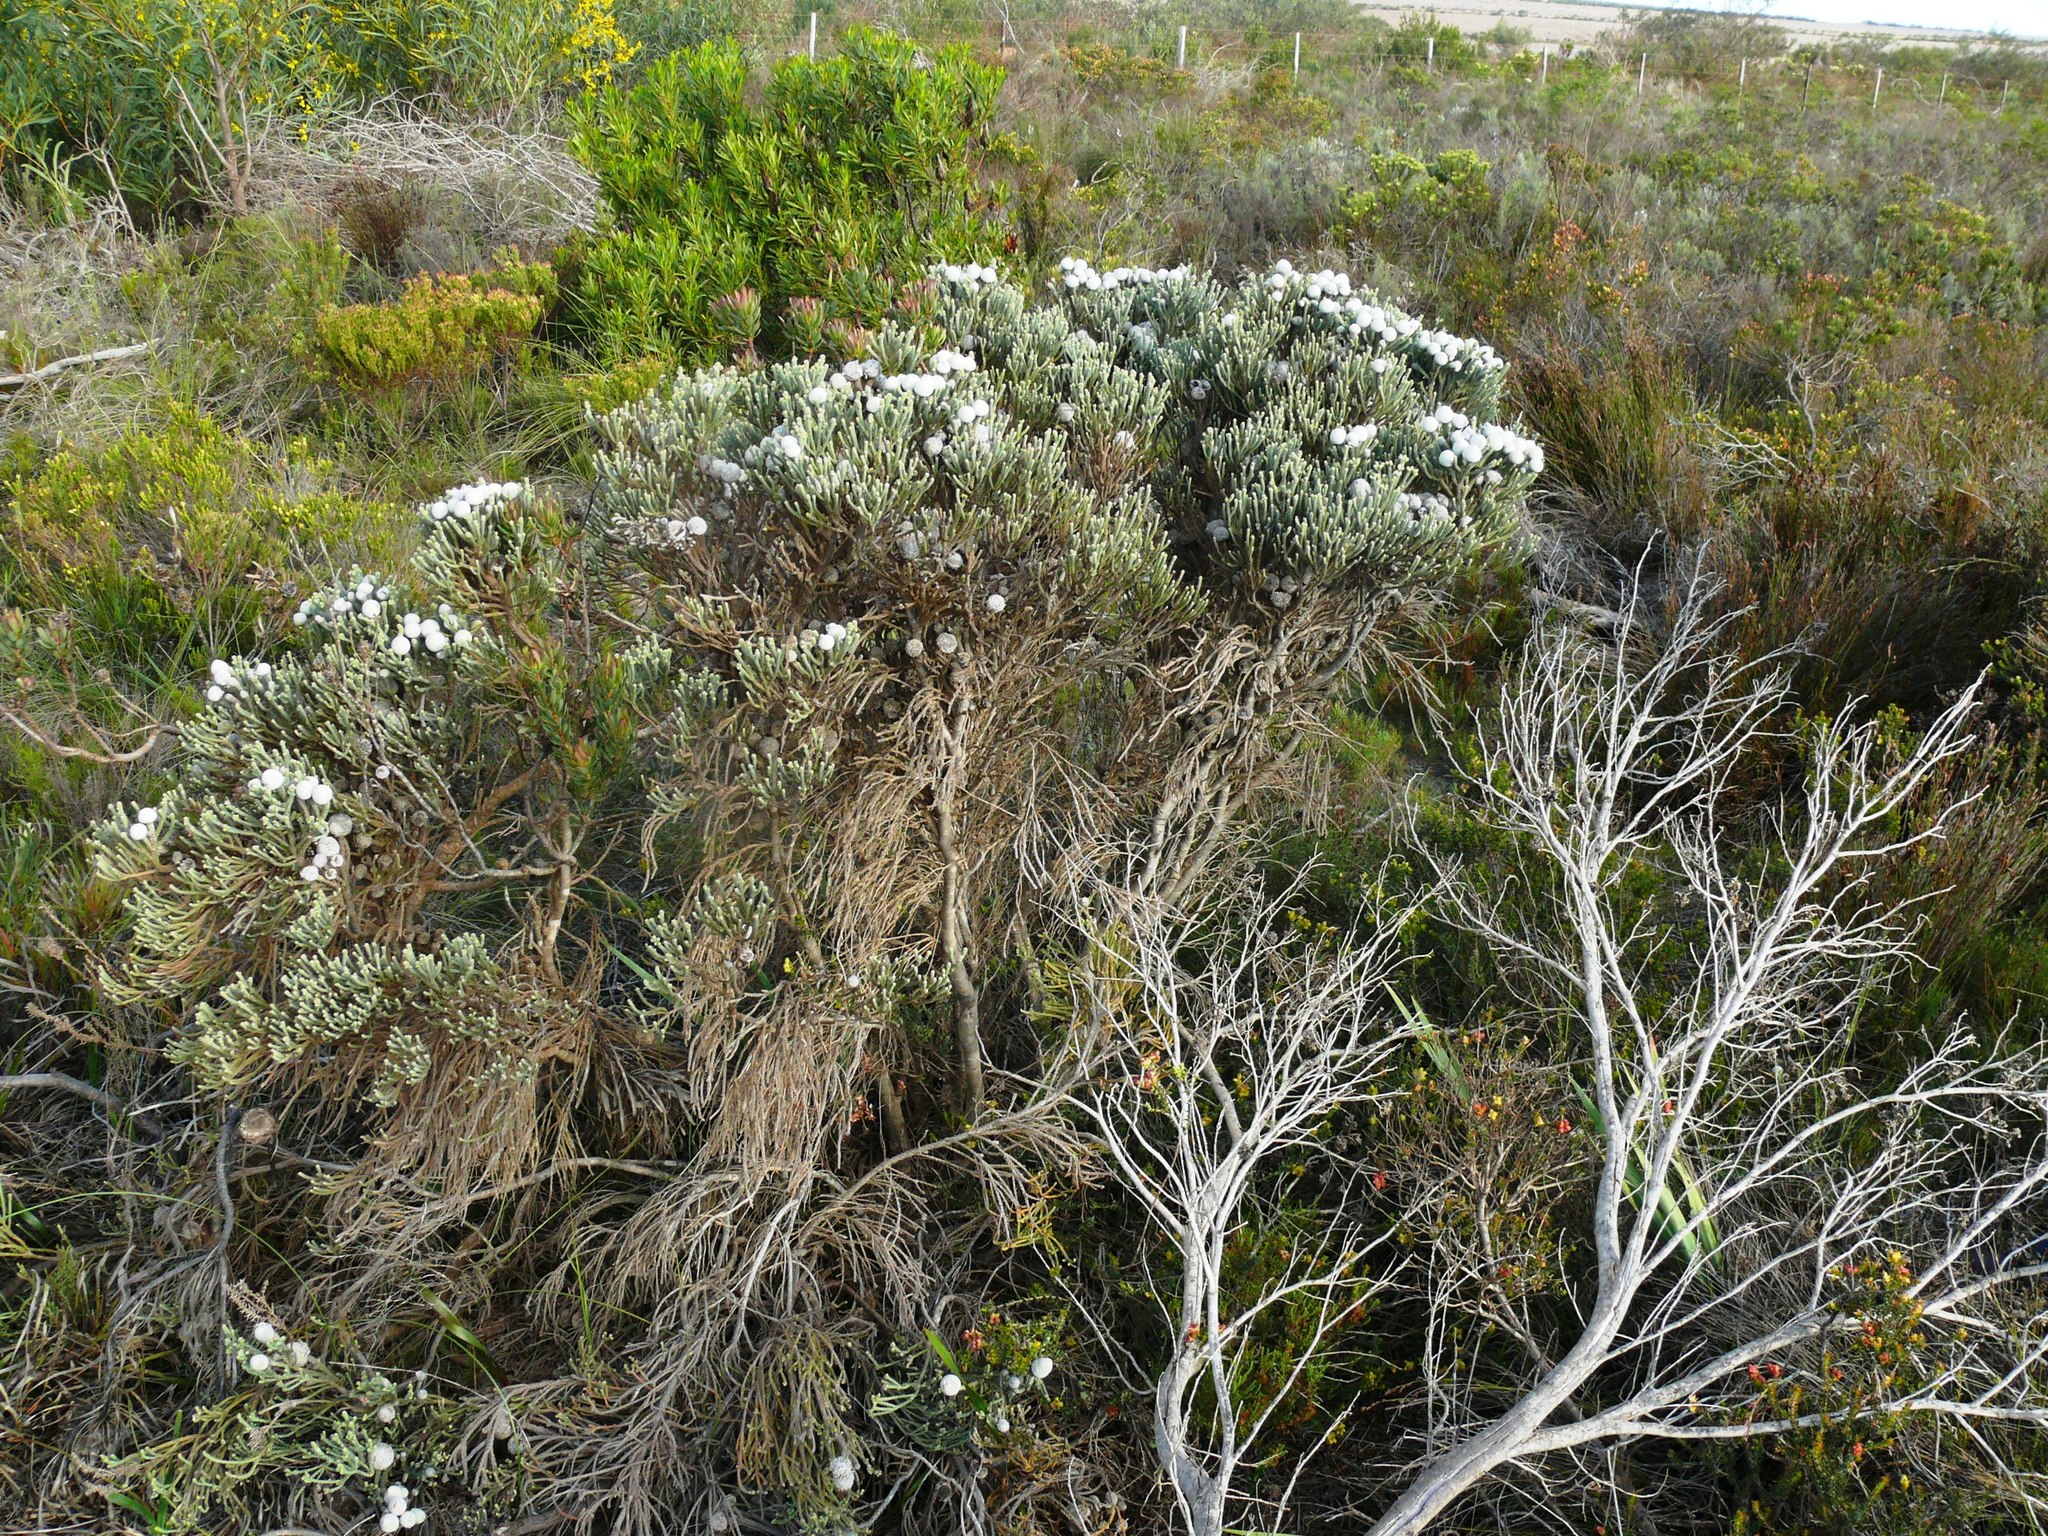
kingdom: Plantae
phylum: Tracheophyta
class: Magnoliopsida
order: Bruniales
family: Bruniaceae
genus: Brunia
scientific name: Brunia laevis
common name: Silver brunia
